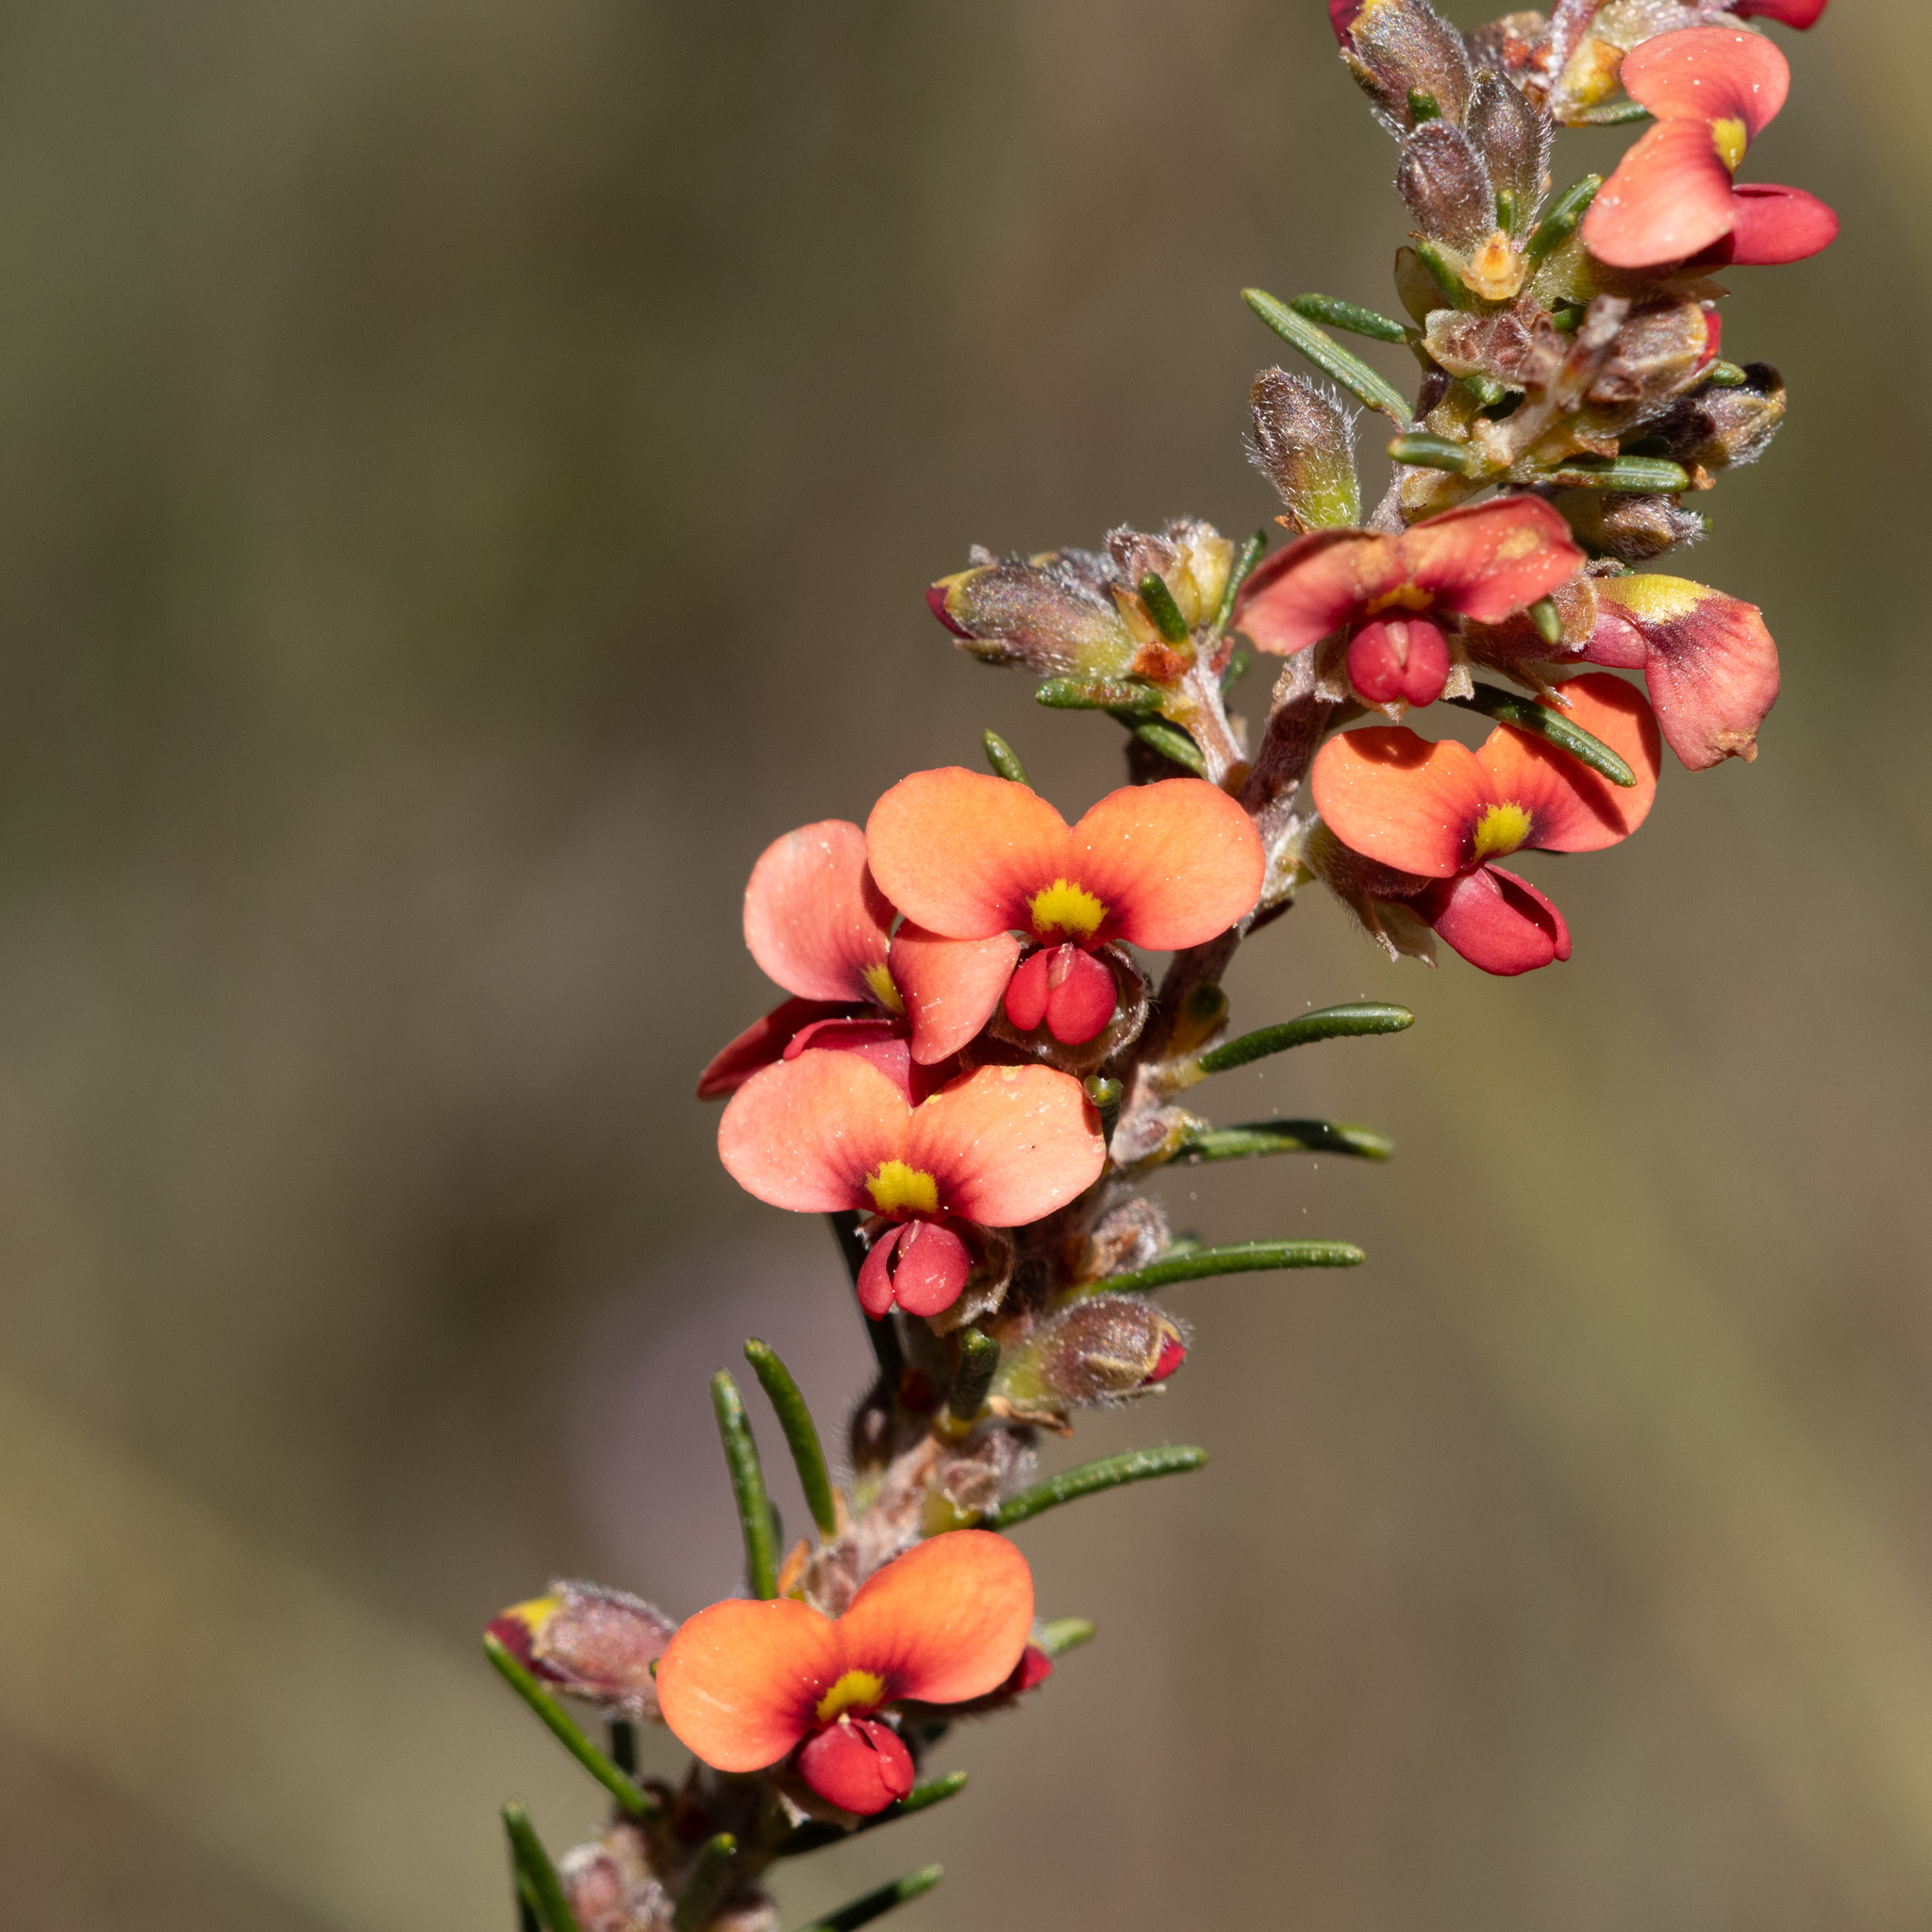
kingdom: Plantae
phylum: Tracheophyta
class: Magnoliopsida
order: Fabales
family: Fabaceae
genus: Dillwynia
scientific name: Dillwynia sericea
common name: Showy parrot-pea
